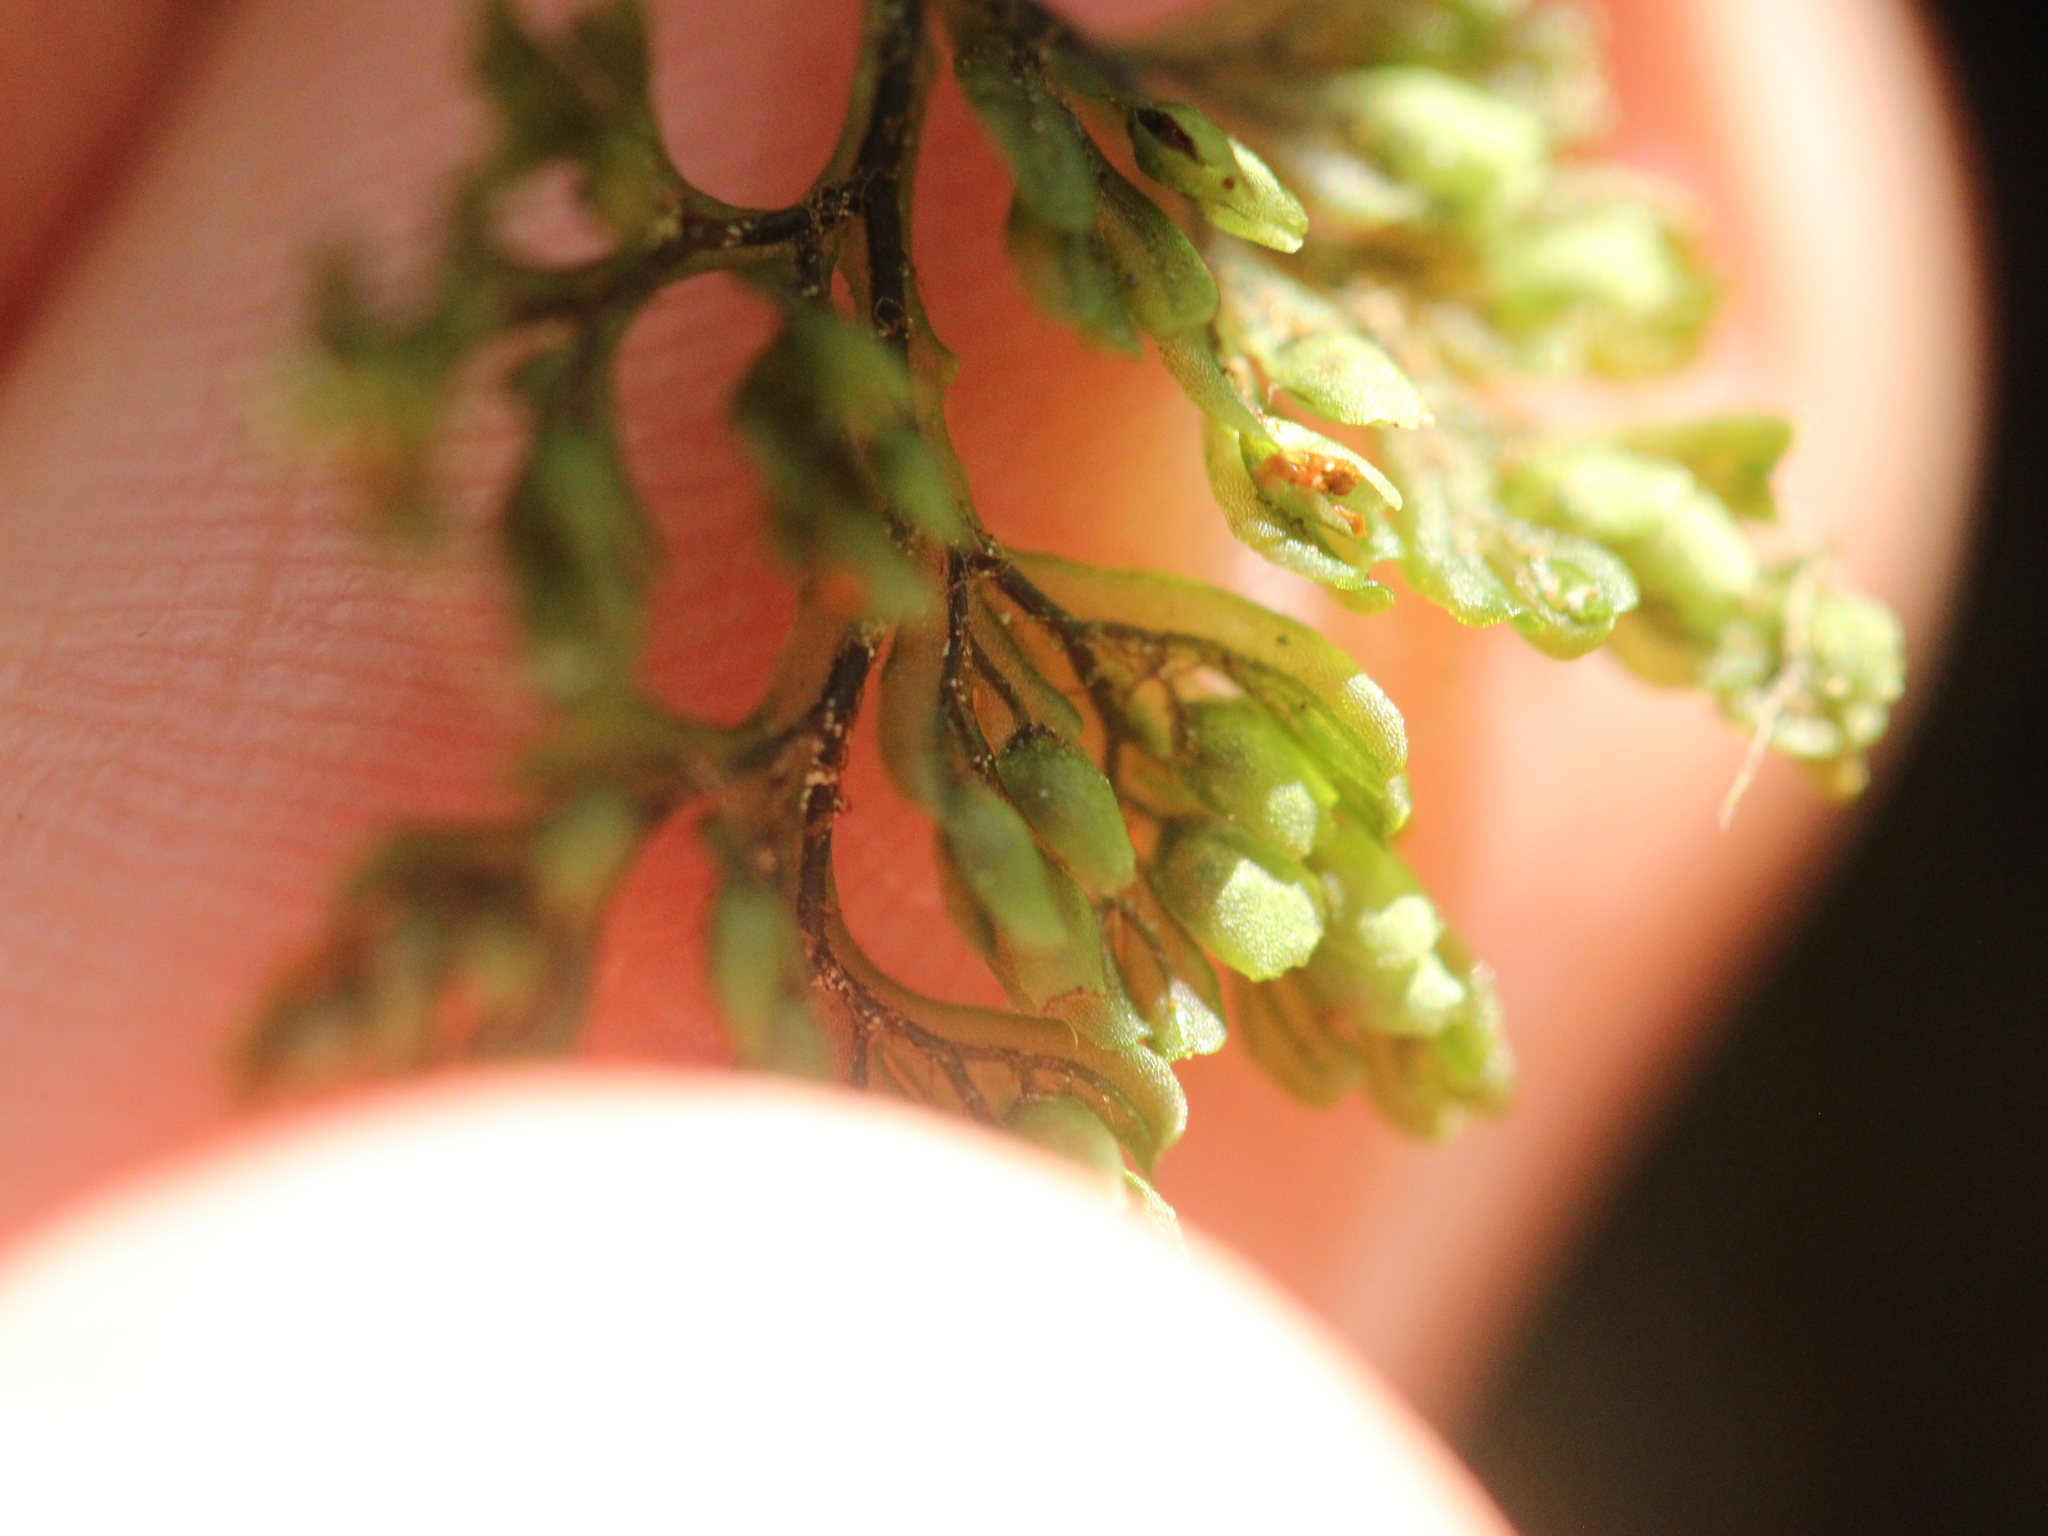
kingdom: Plantae
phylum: Tracheophyta
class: Polypodiopsida
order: Hymenophyllales
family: Hymenophyllaceae
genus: Hymenophyllum
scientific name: Hymenophyllum villosum
